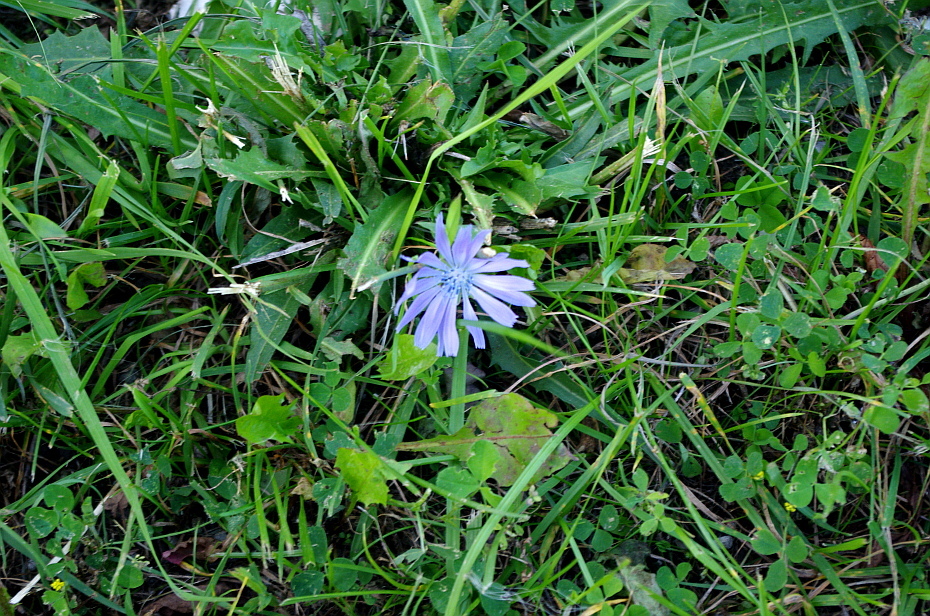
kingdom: Plantae
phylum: Tracheophyta
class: Magnoliopsida
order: Asterales
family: Asteraceae
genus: Cichorium
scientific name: Cichorium intybus
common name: Chicory
